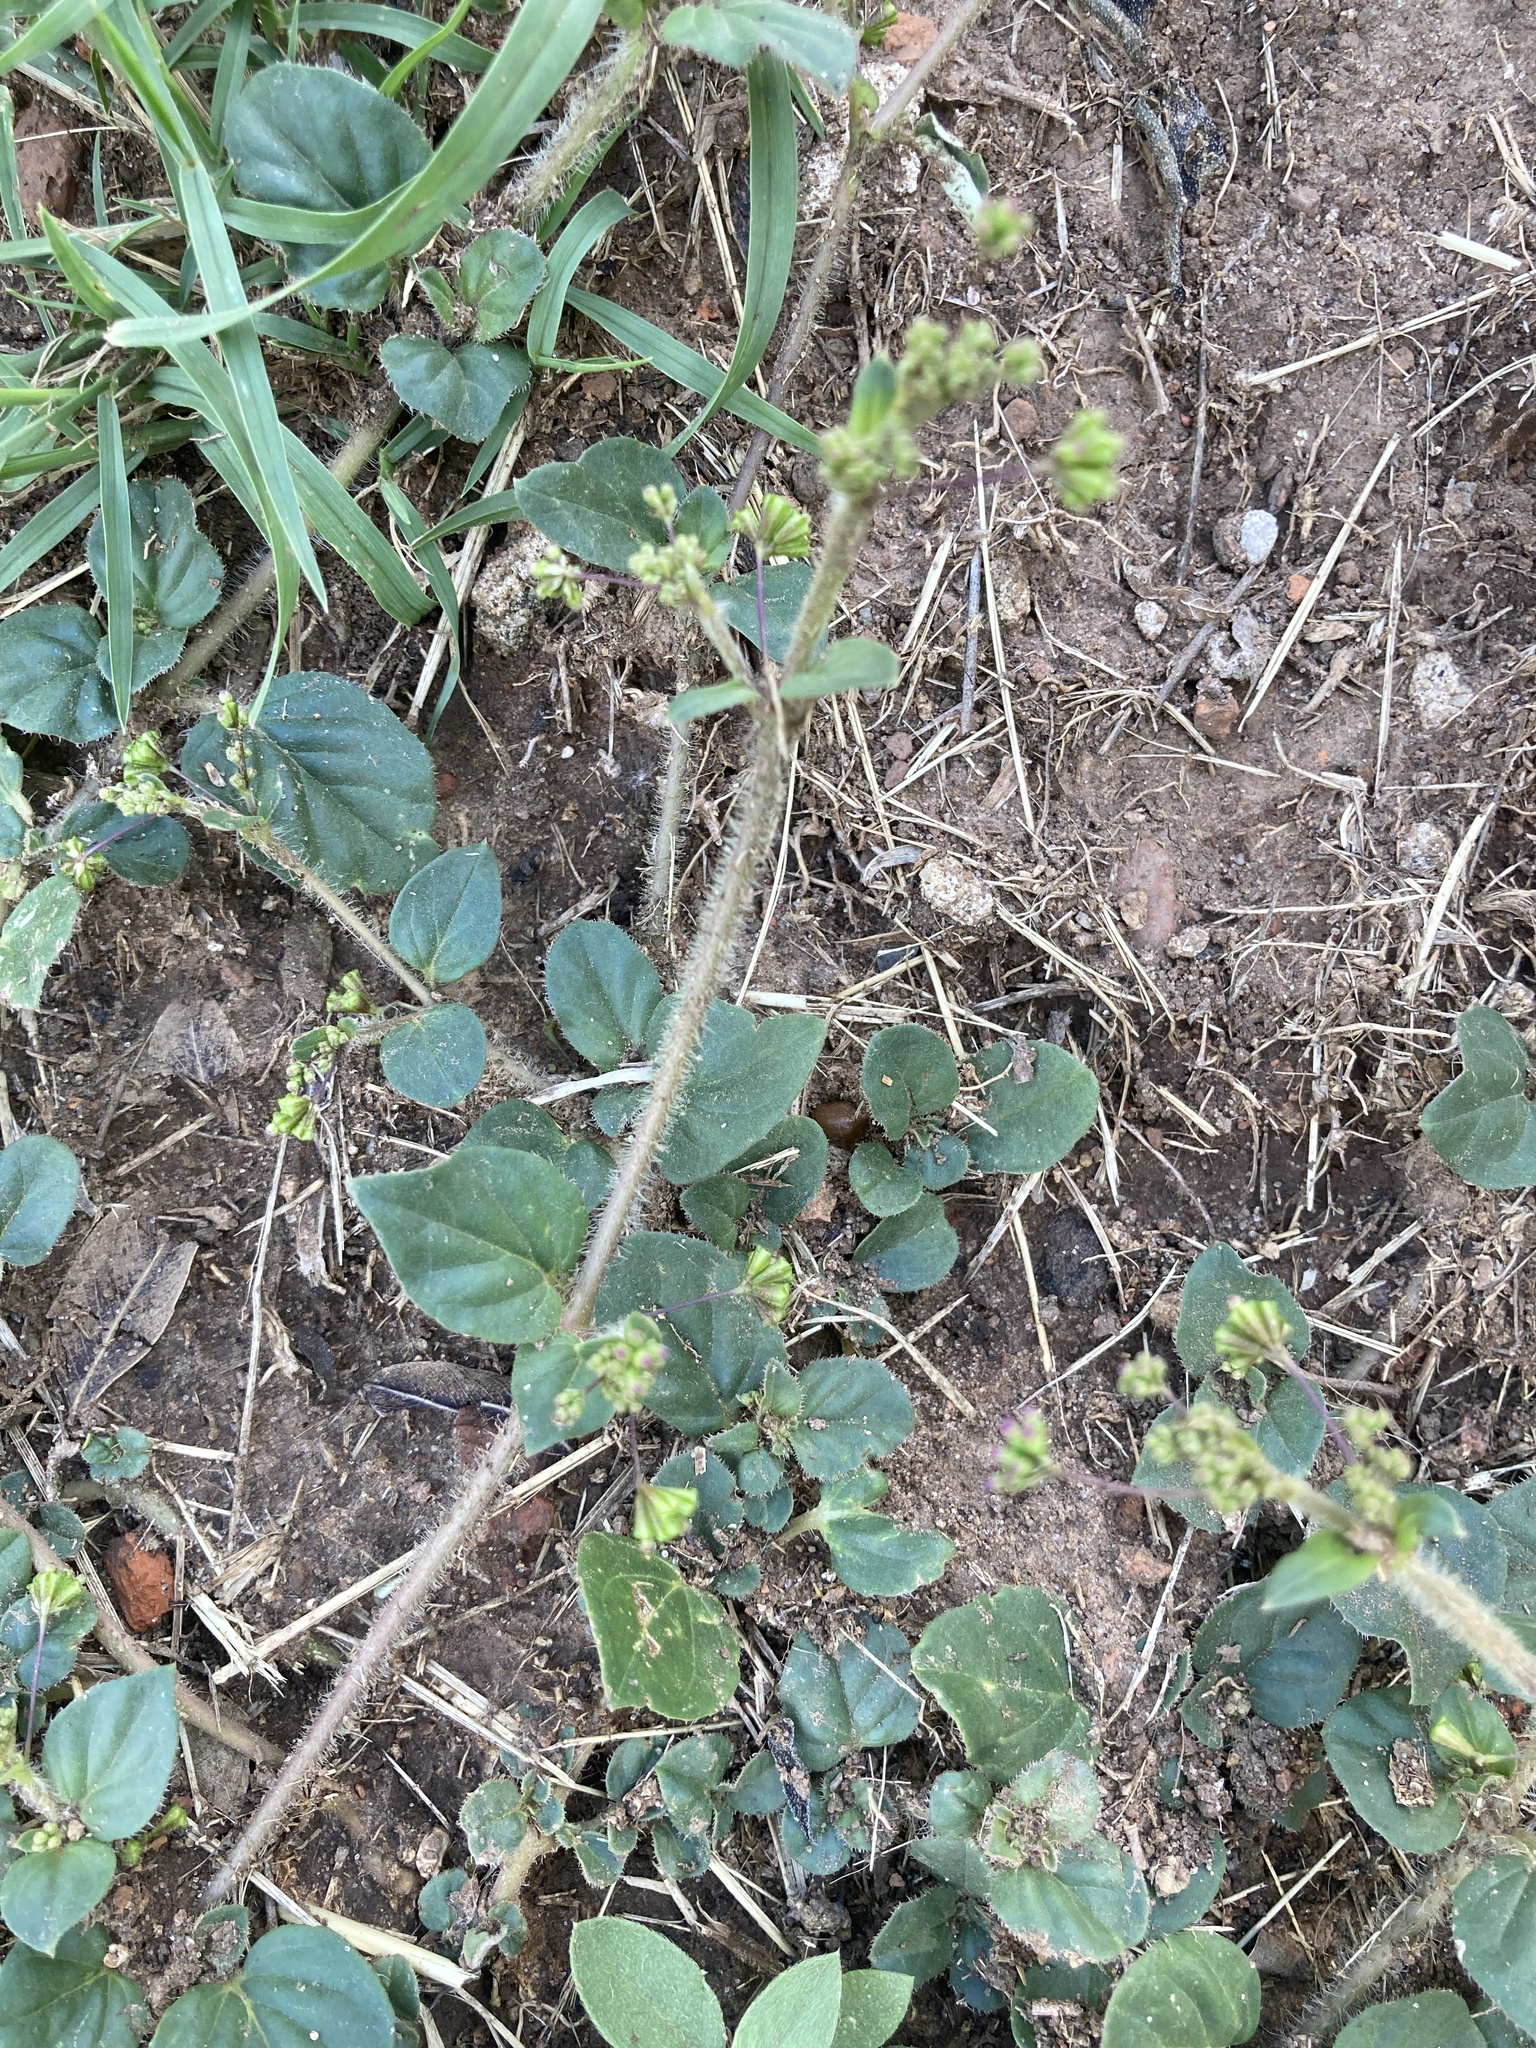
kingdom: Plantae
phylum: Tracheophyta
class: Magnoliopsida
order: Caryophyllales
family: Nyctaginaceae
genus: Boerhavia
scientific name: Boerhavia diffusa
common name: Red spiderling
